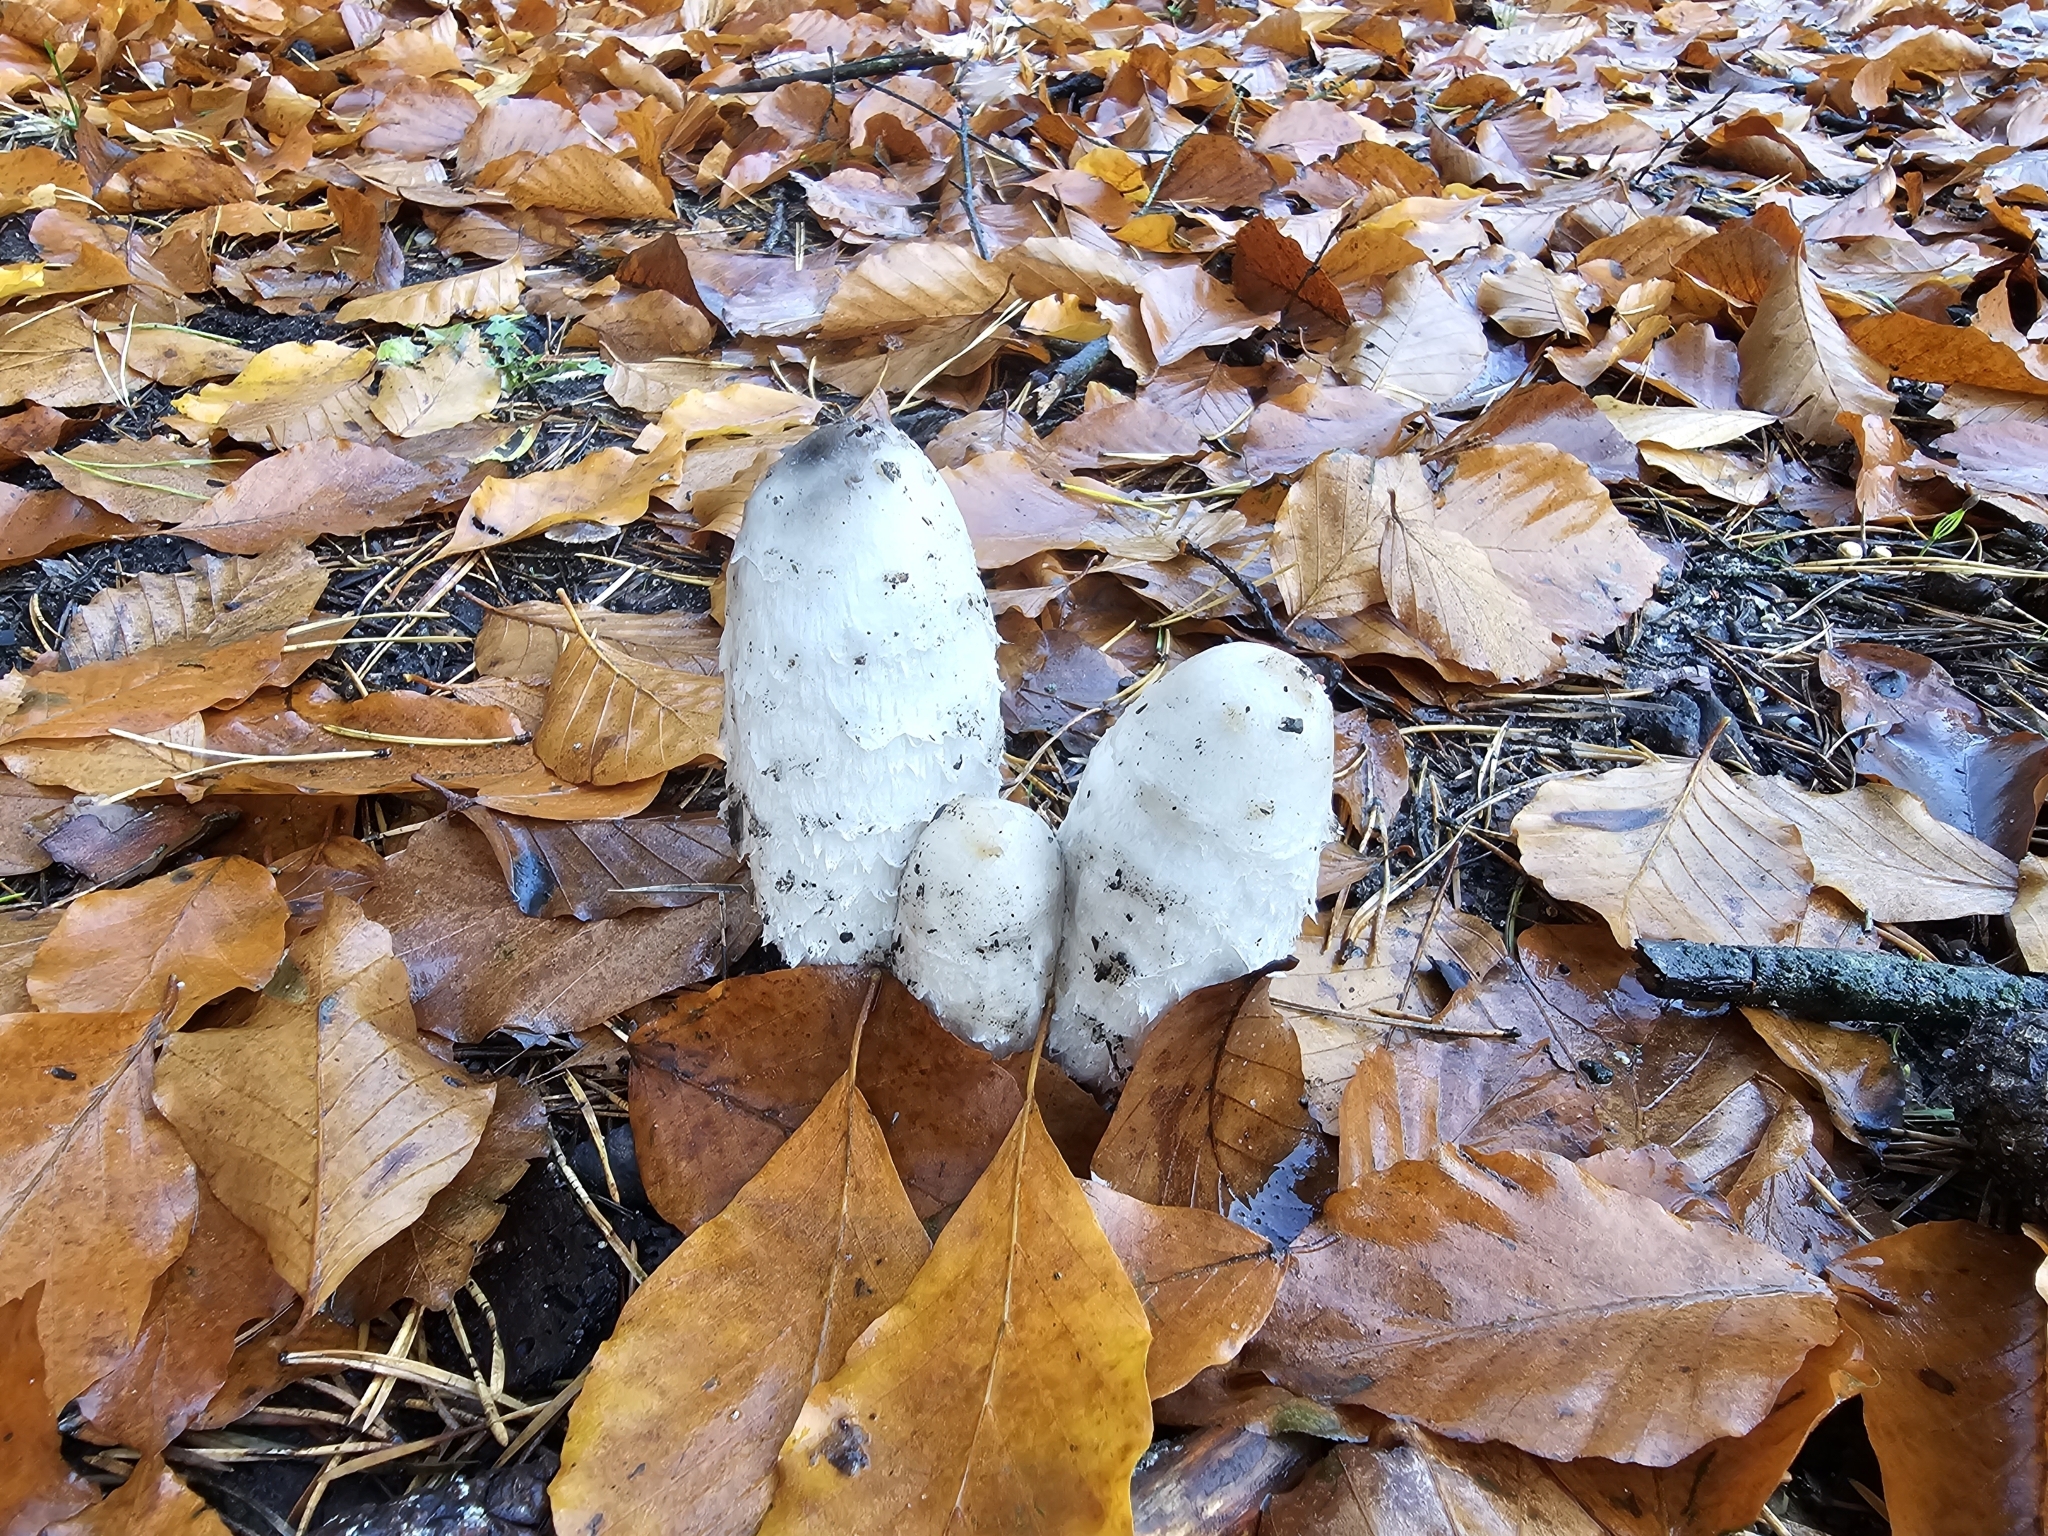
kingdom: Fungi
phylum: Basidiomycota
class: Agaricomycetes
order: Agaricales
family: Agaricaceae
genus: Coprinus
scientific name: Coprinus comatus
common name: Lawyer's wig
